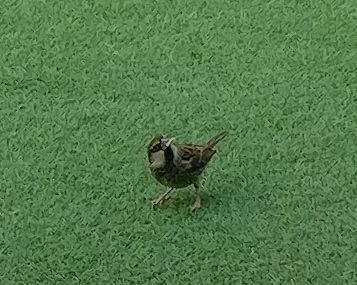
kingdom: Animalia
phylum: Chordata
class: Aves
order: Passeriformes
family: Passeridae
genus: Passer
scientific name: Passer hispaniolensis
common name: Spanish sparrow
